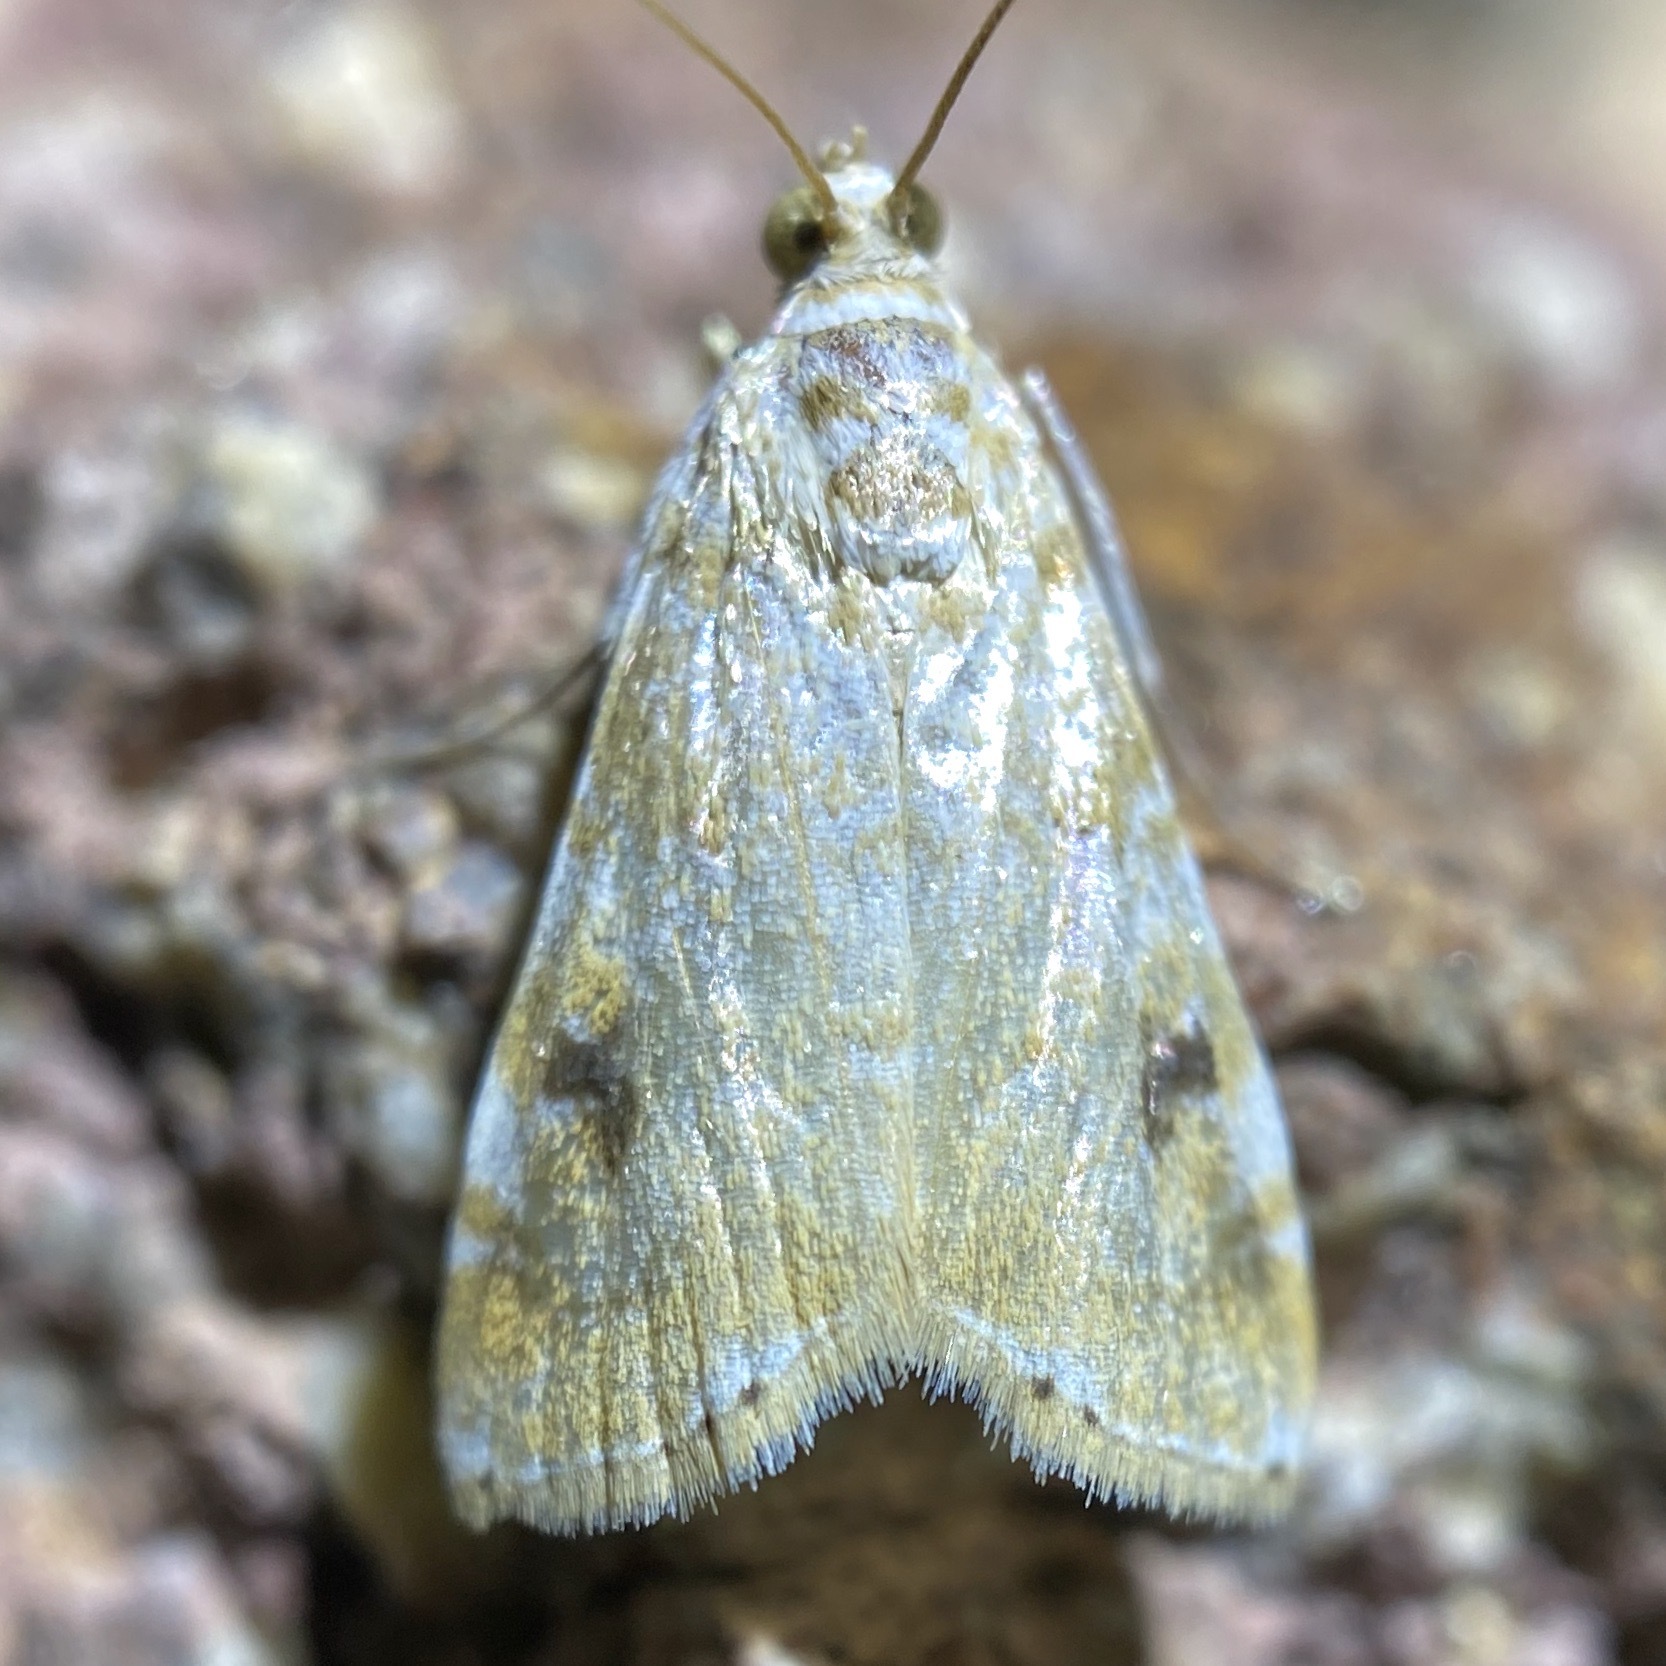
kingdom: Animalia
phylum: Arthropoda
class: Insecta
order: Lepidoptera
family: Crambidae
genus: Hellula
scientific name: Hellula phidilealis
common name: Crambid moth
